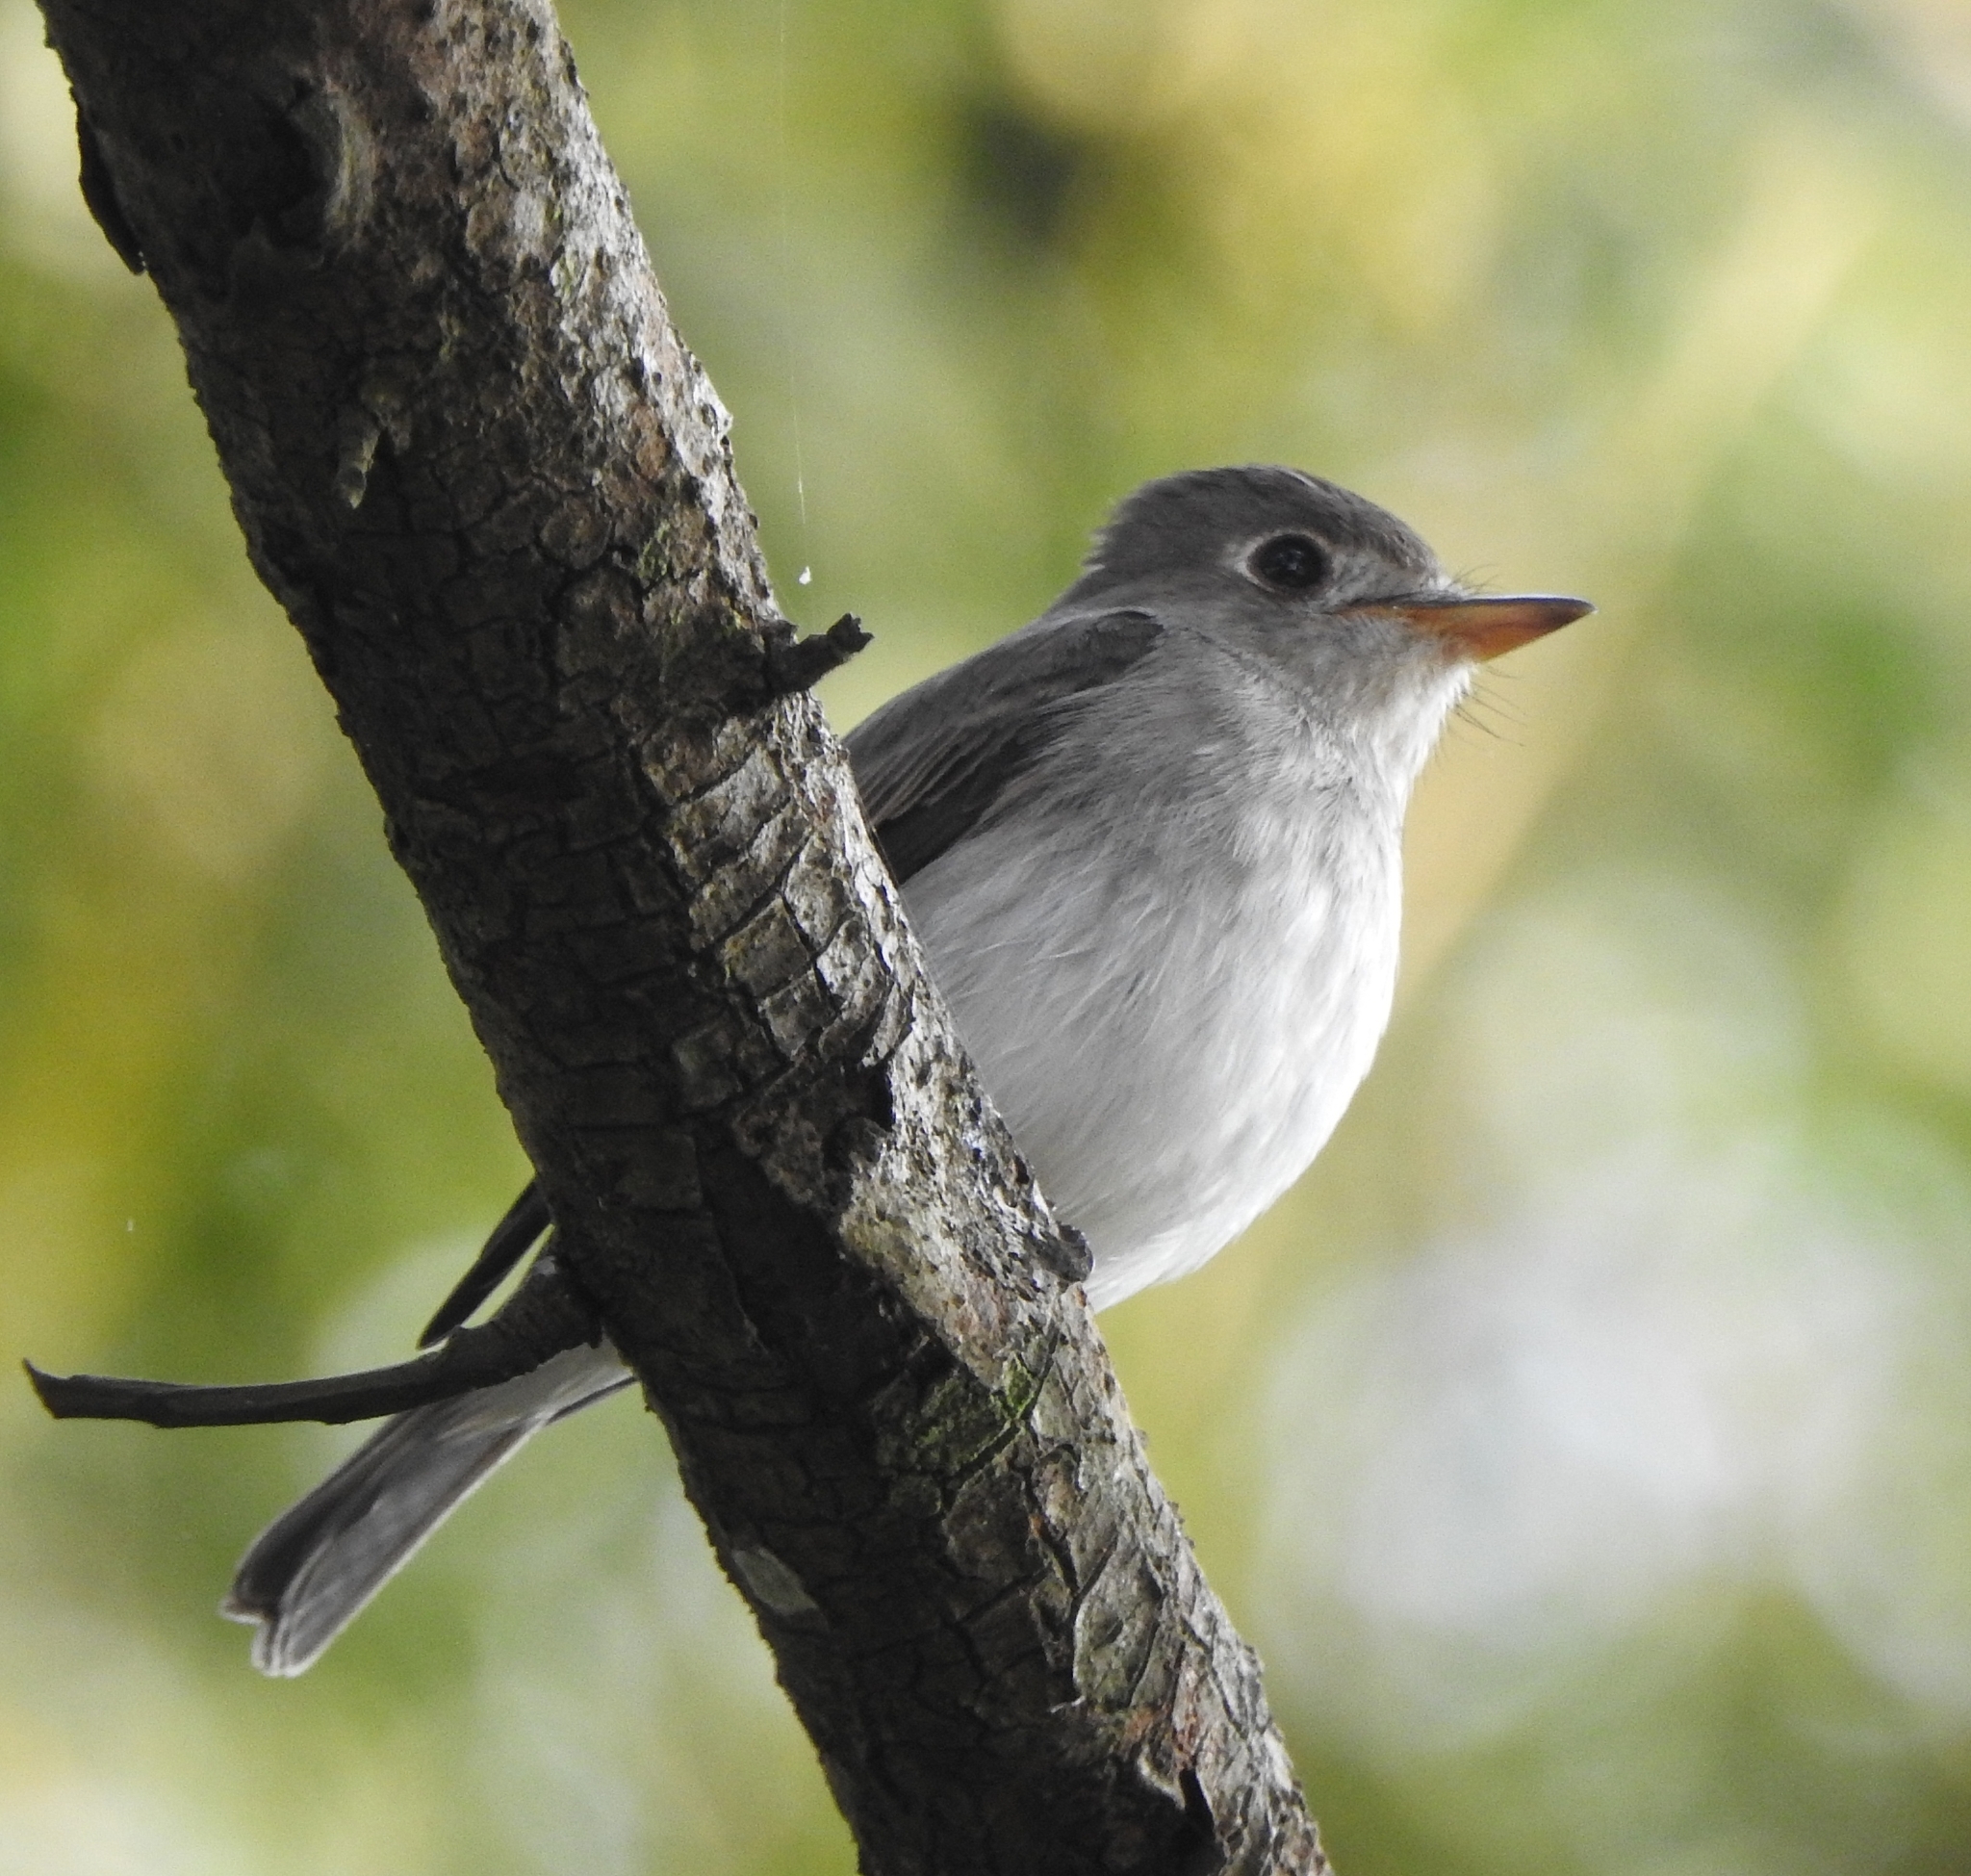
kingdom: Animalia
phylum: Chordata
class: Aves
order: Passeriformes
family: Muscicapidae
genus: Muscicapa
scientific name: Muscicapa latirostris
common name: Asian brown flycatcher
